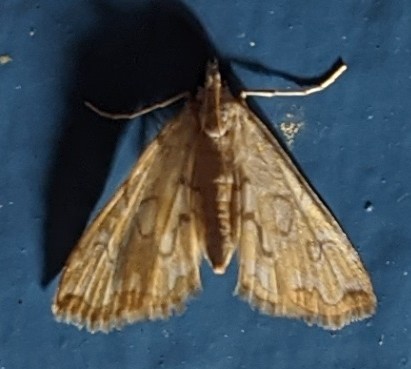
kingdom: Animalia
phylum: Arthropoda
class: Insecta
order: Lepidoptera
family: Crambidae
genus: Elophila
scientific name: Elophila icciusalis
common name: Pondside pyralid moth
